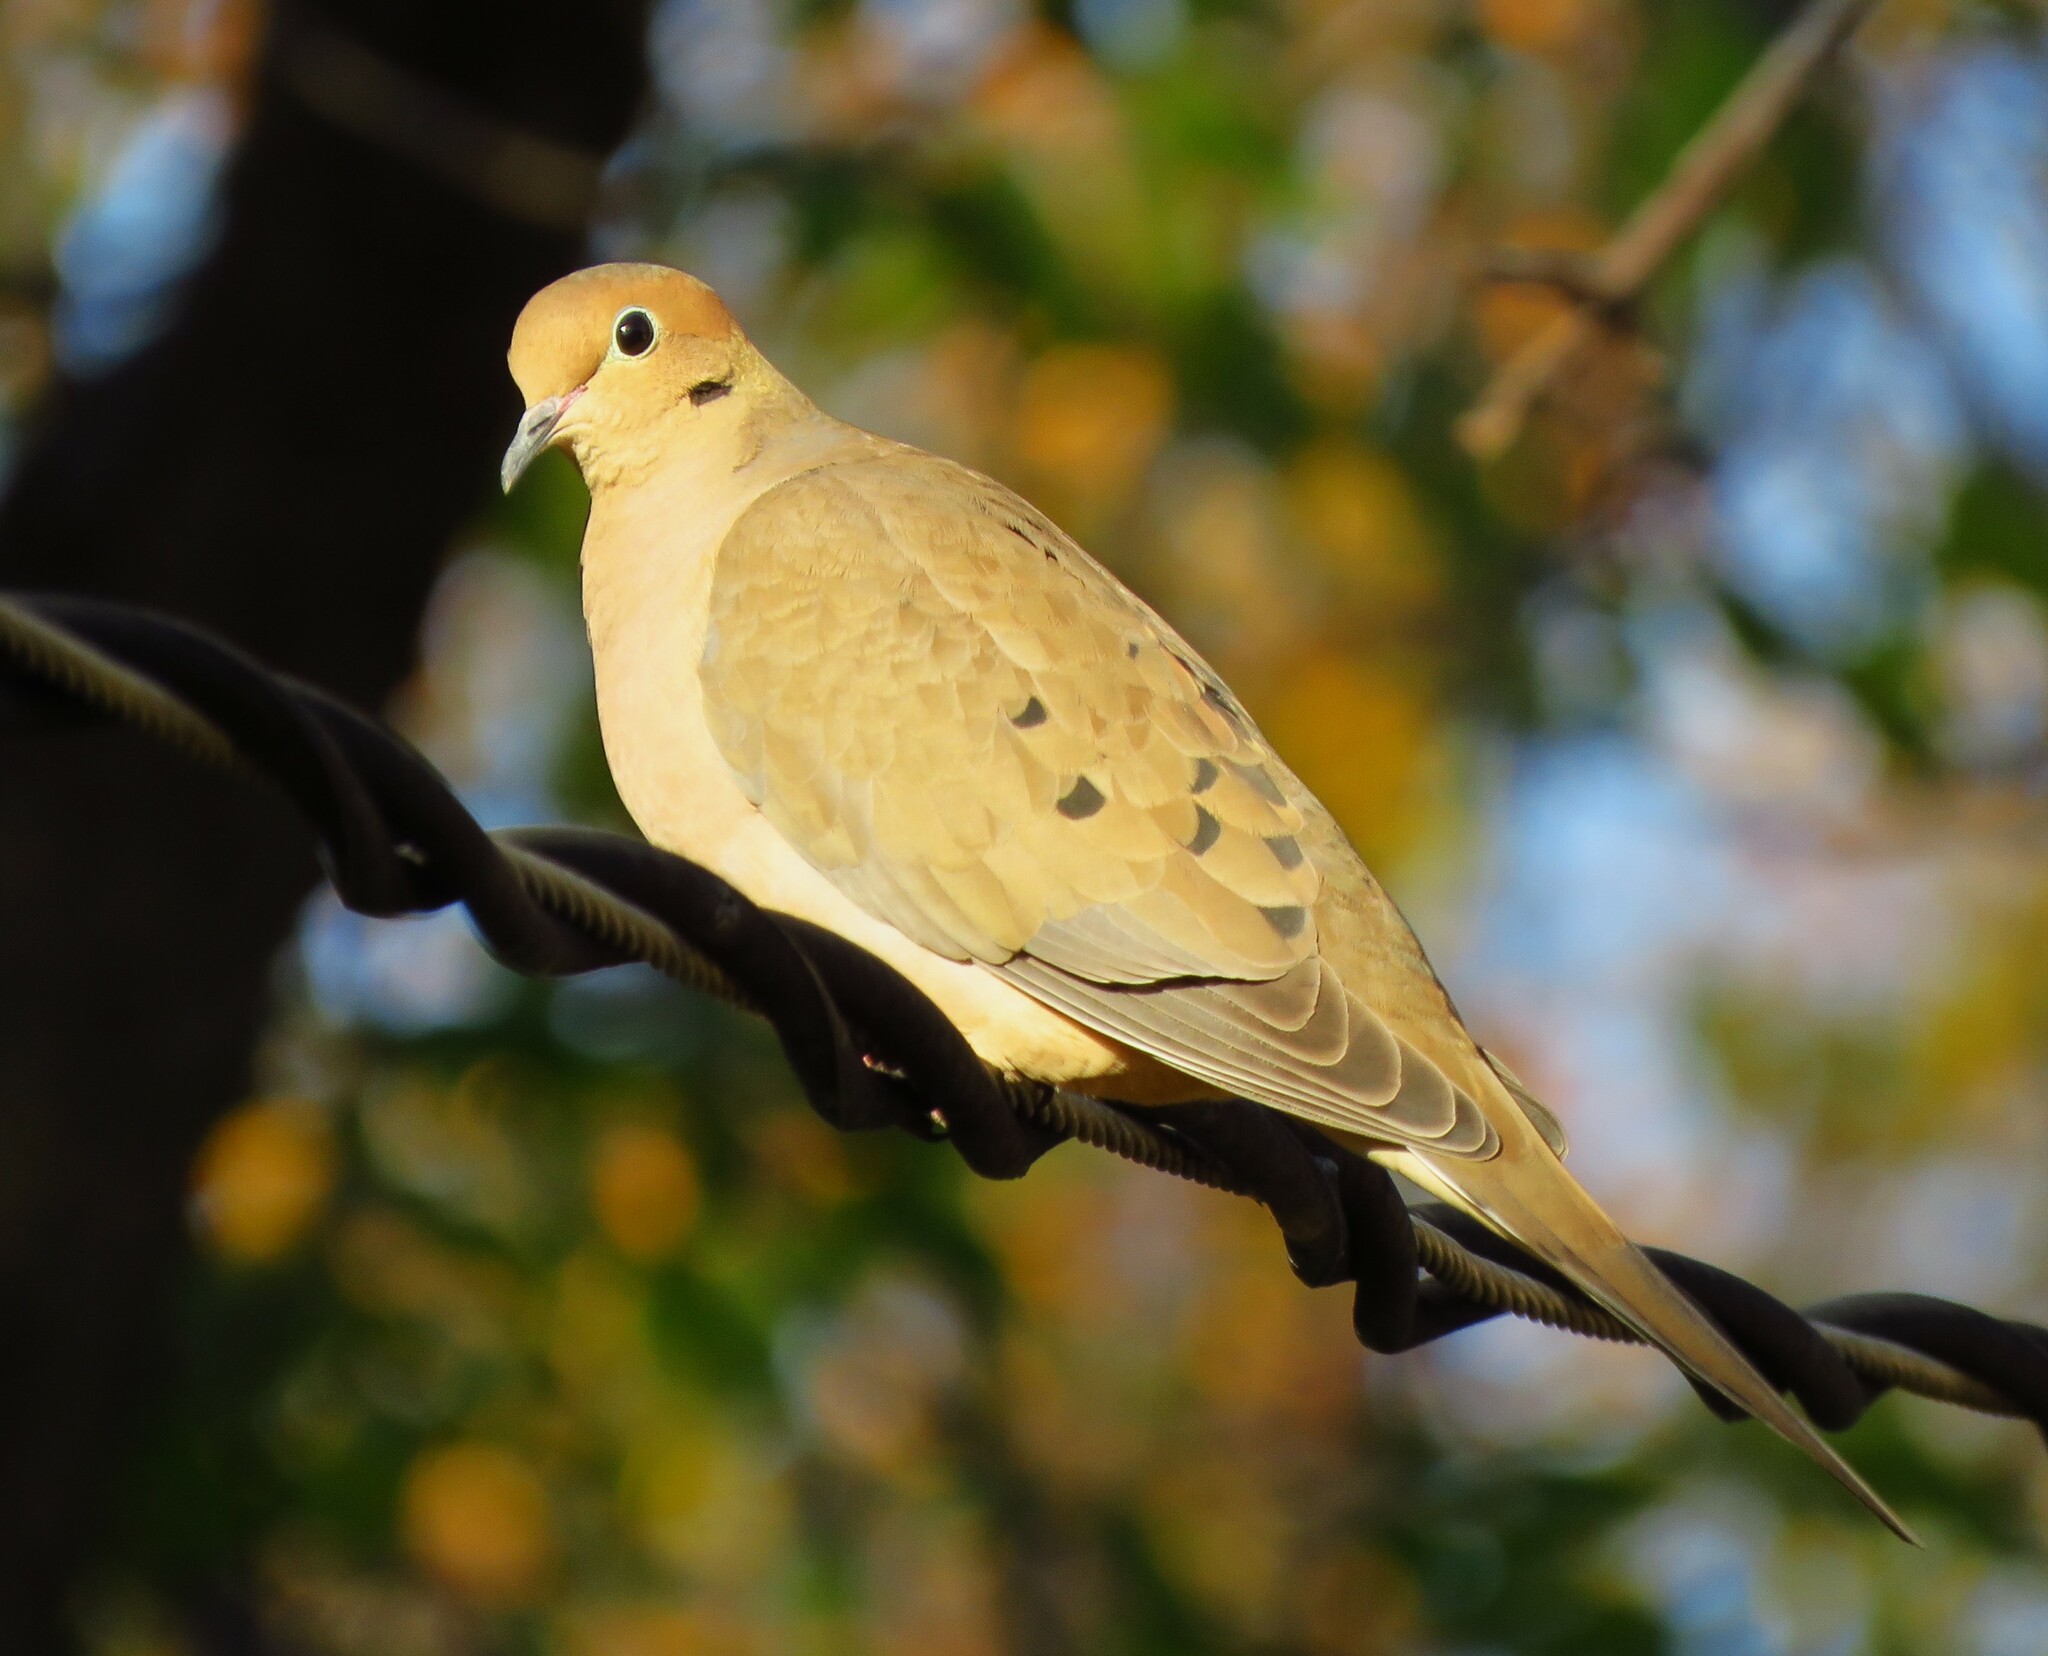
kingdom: Animalia
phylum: Chordata
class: Aves
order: Columbiformes
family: Columbidae
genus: Zenaida
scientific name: Zenaida macroura
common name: Mourning dove
